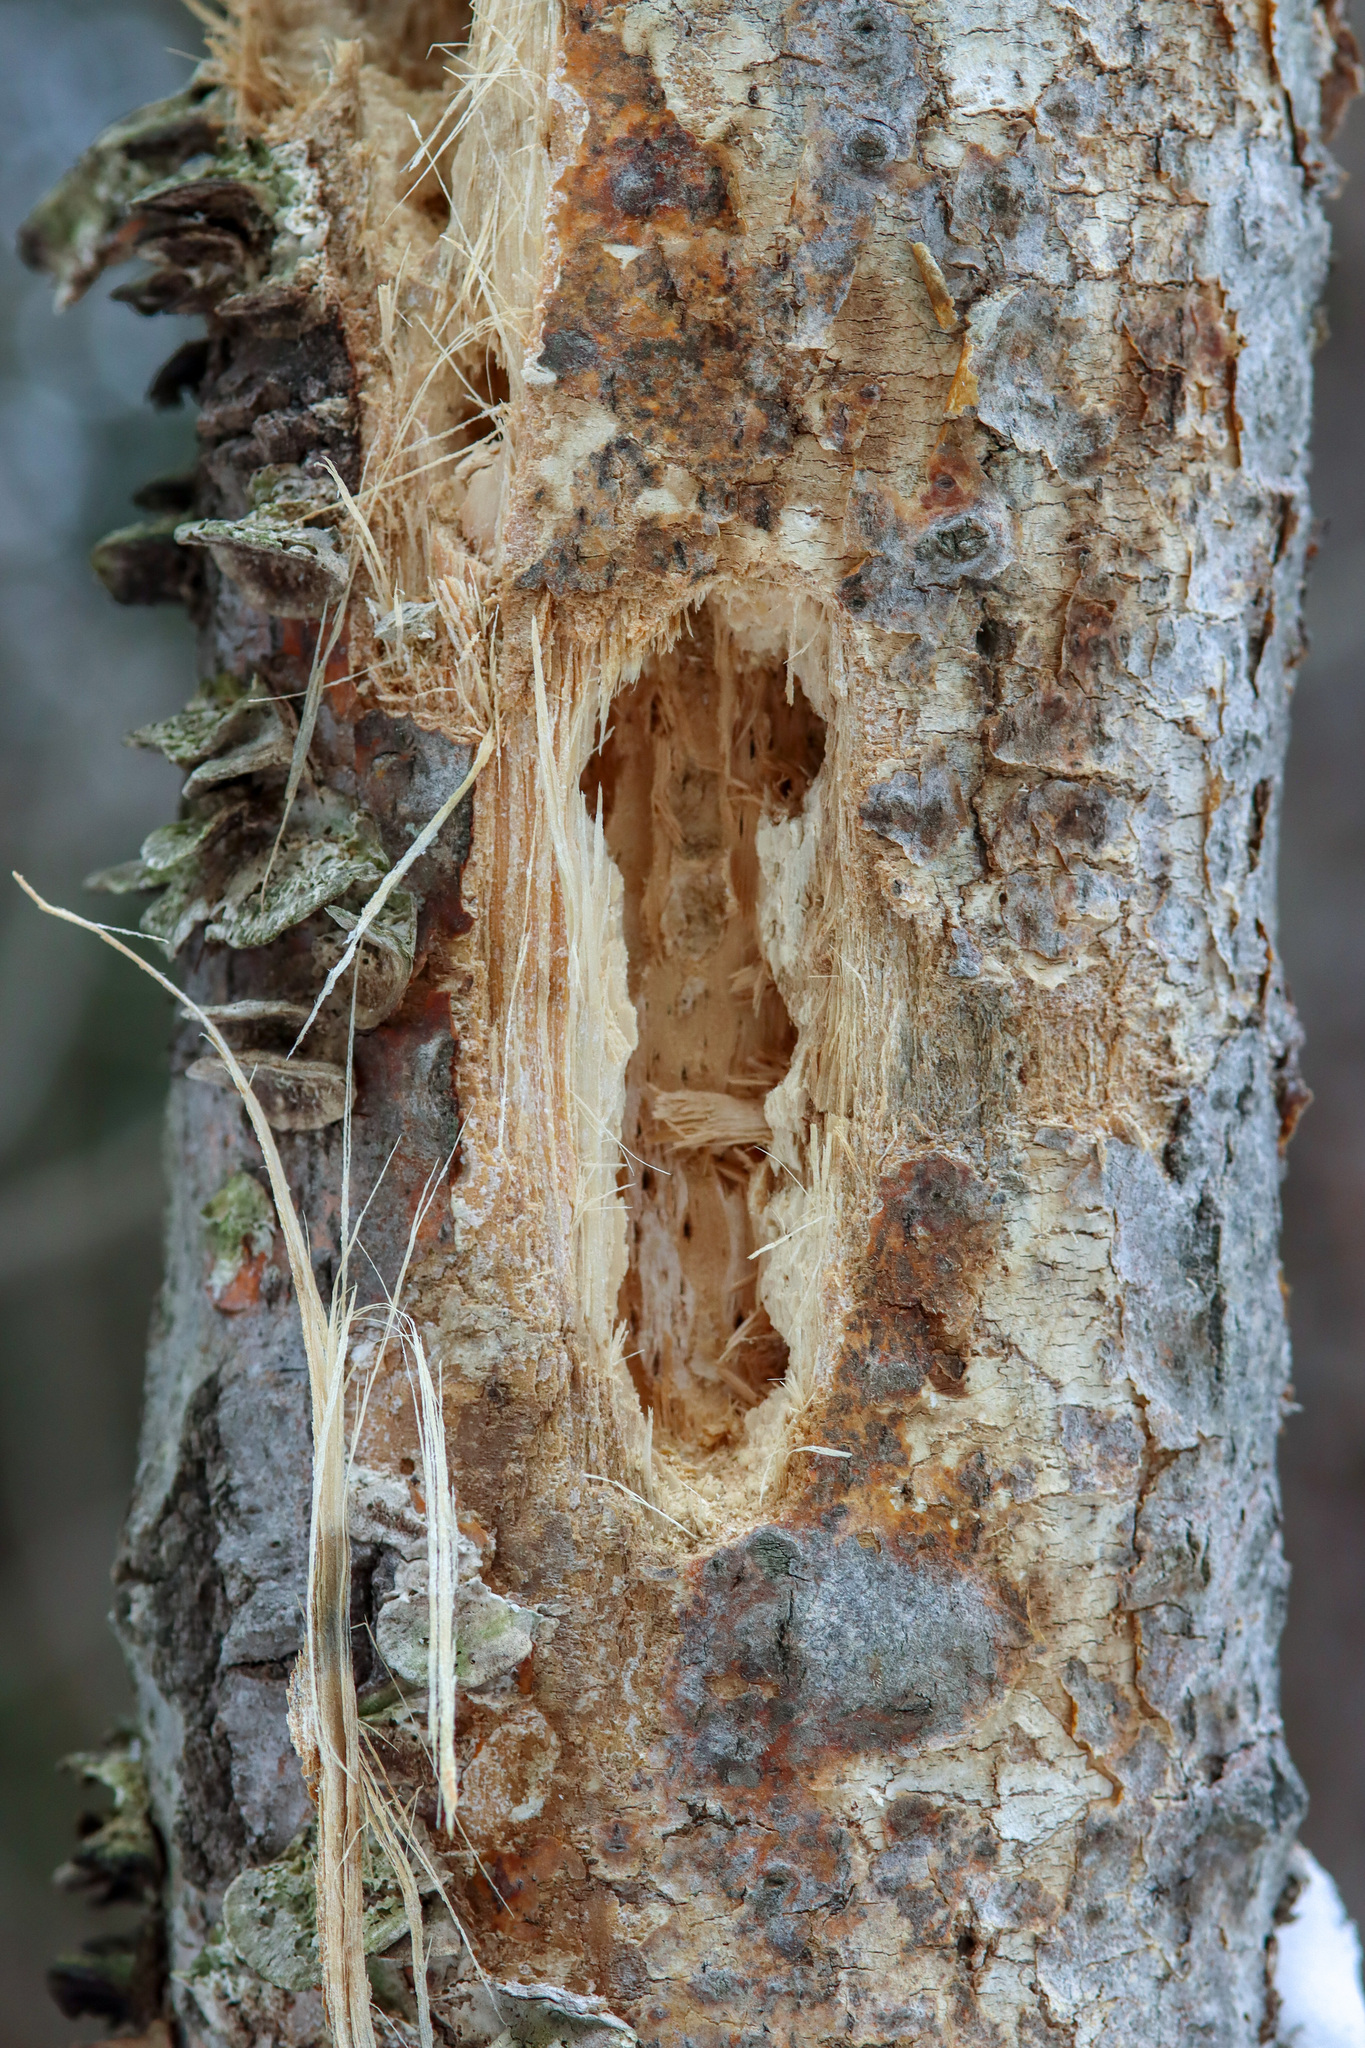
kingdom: Animalia
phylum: Chordata
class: Aves
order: Piciformes
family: Picidae
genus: Dryocopus
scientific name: Dryocopus pileatus
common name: Pileated woodpecker
